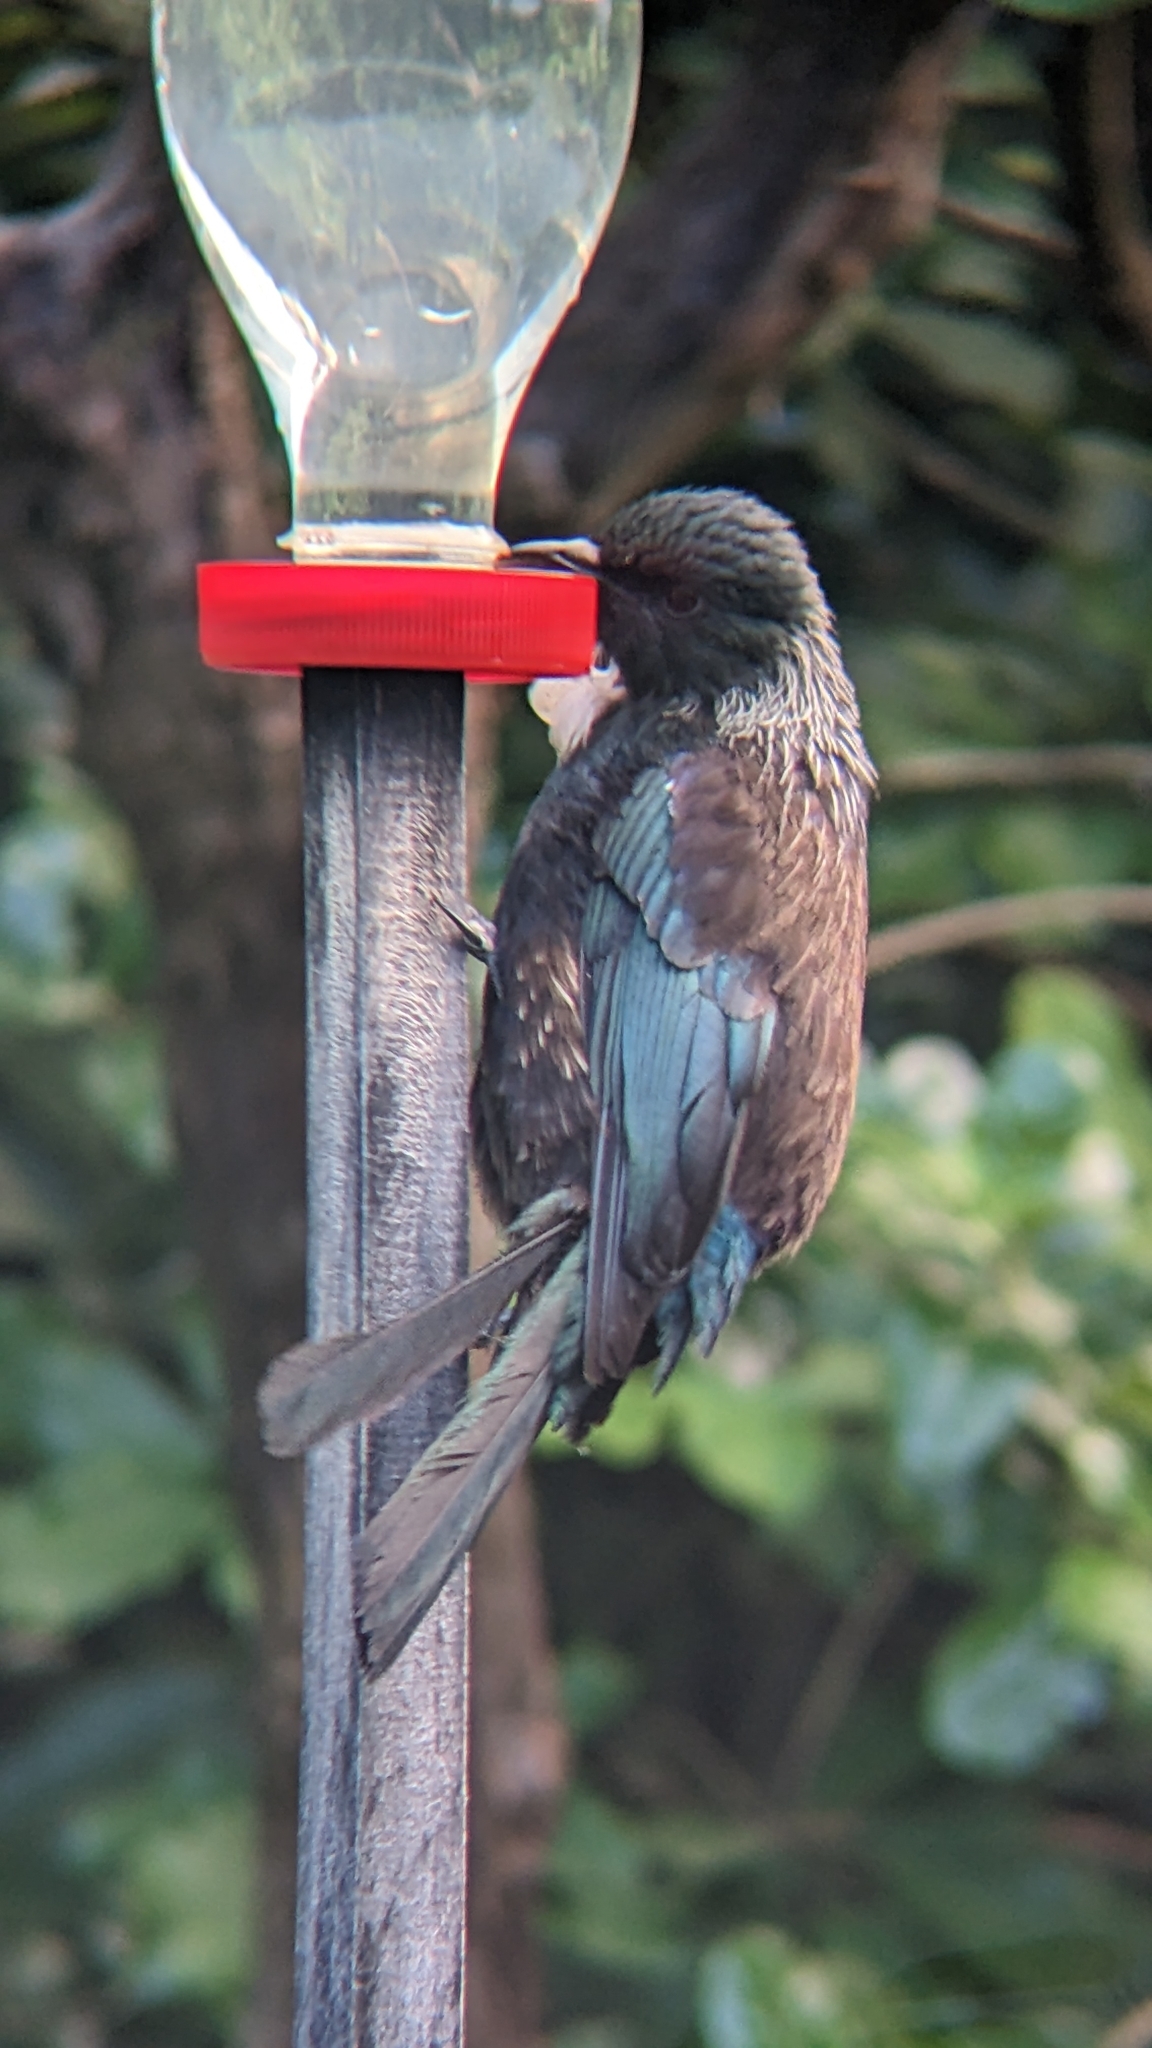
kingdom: Animalia
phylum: Chordata
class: Aves
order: Passeriformes
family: Meliphagidae
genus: Prosthemadera
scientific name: Prosthemadera novaeseelandiae
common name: Tui
